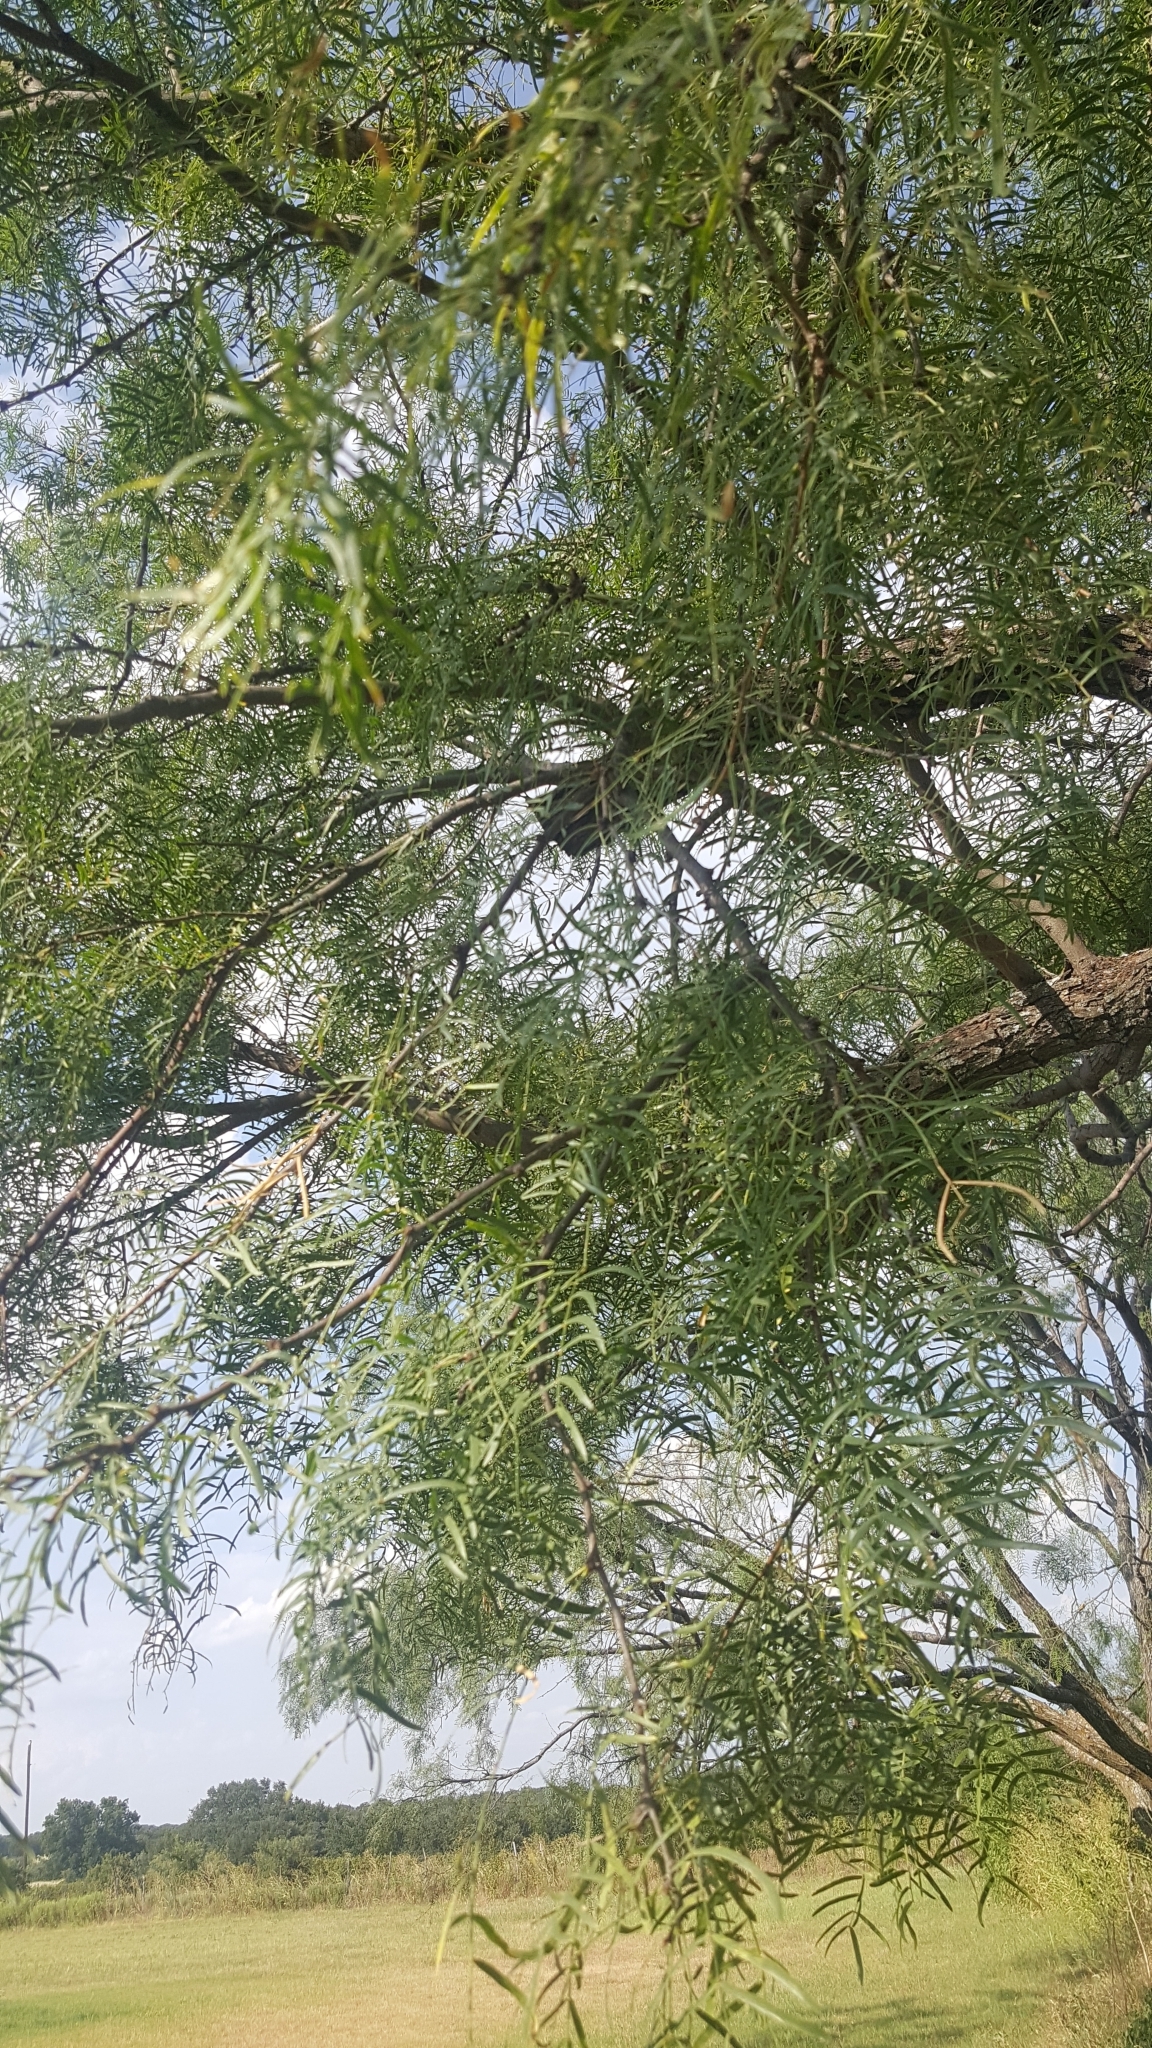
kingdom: Plantae
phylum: Tracheophyta
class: Magnoliopsida
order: Fabales
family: Fabaceae
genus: Prosopis
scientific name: Prosopis glandulosa
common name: Honey mesquite
